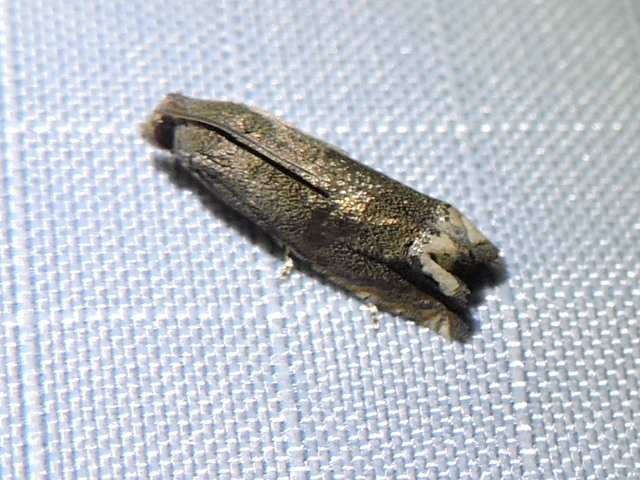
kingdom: Animalia
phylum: Arthropoda
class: Insecta
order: Lepidoptera
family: Tortricidae
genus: Epiblema
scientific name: Epiblema strenuana
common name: Ragweed borer moth
